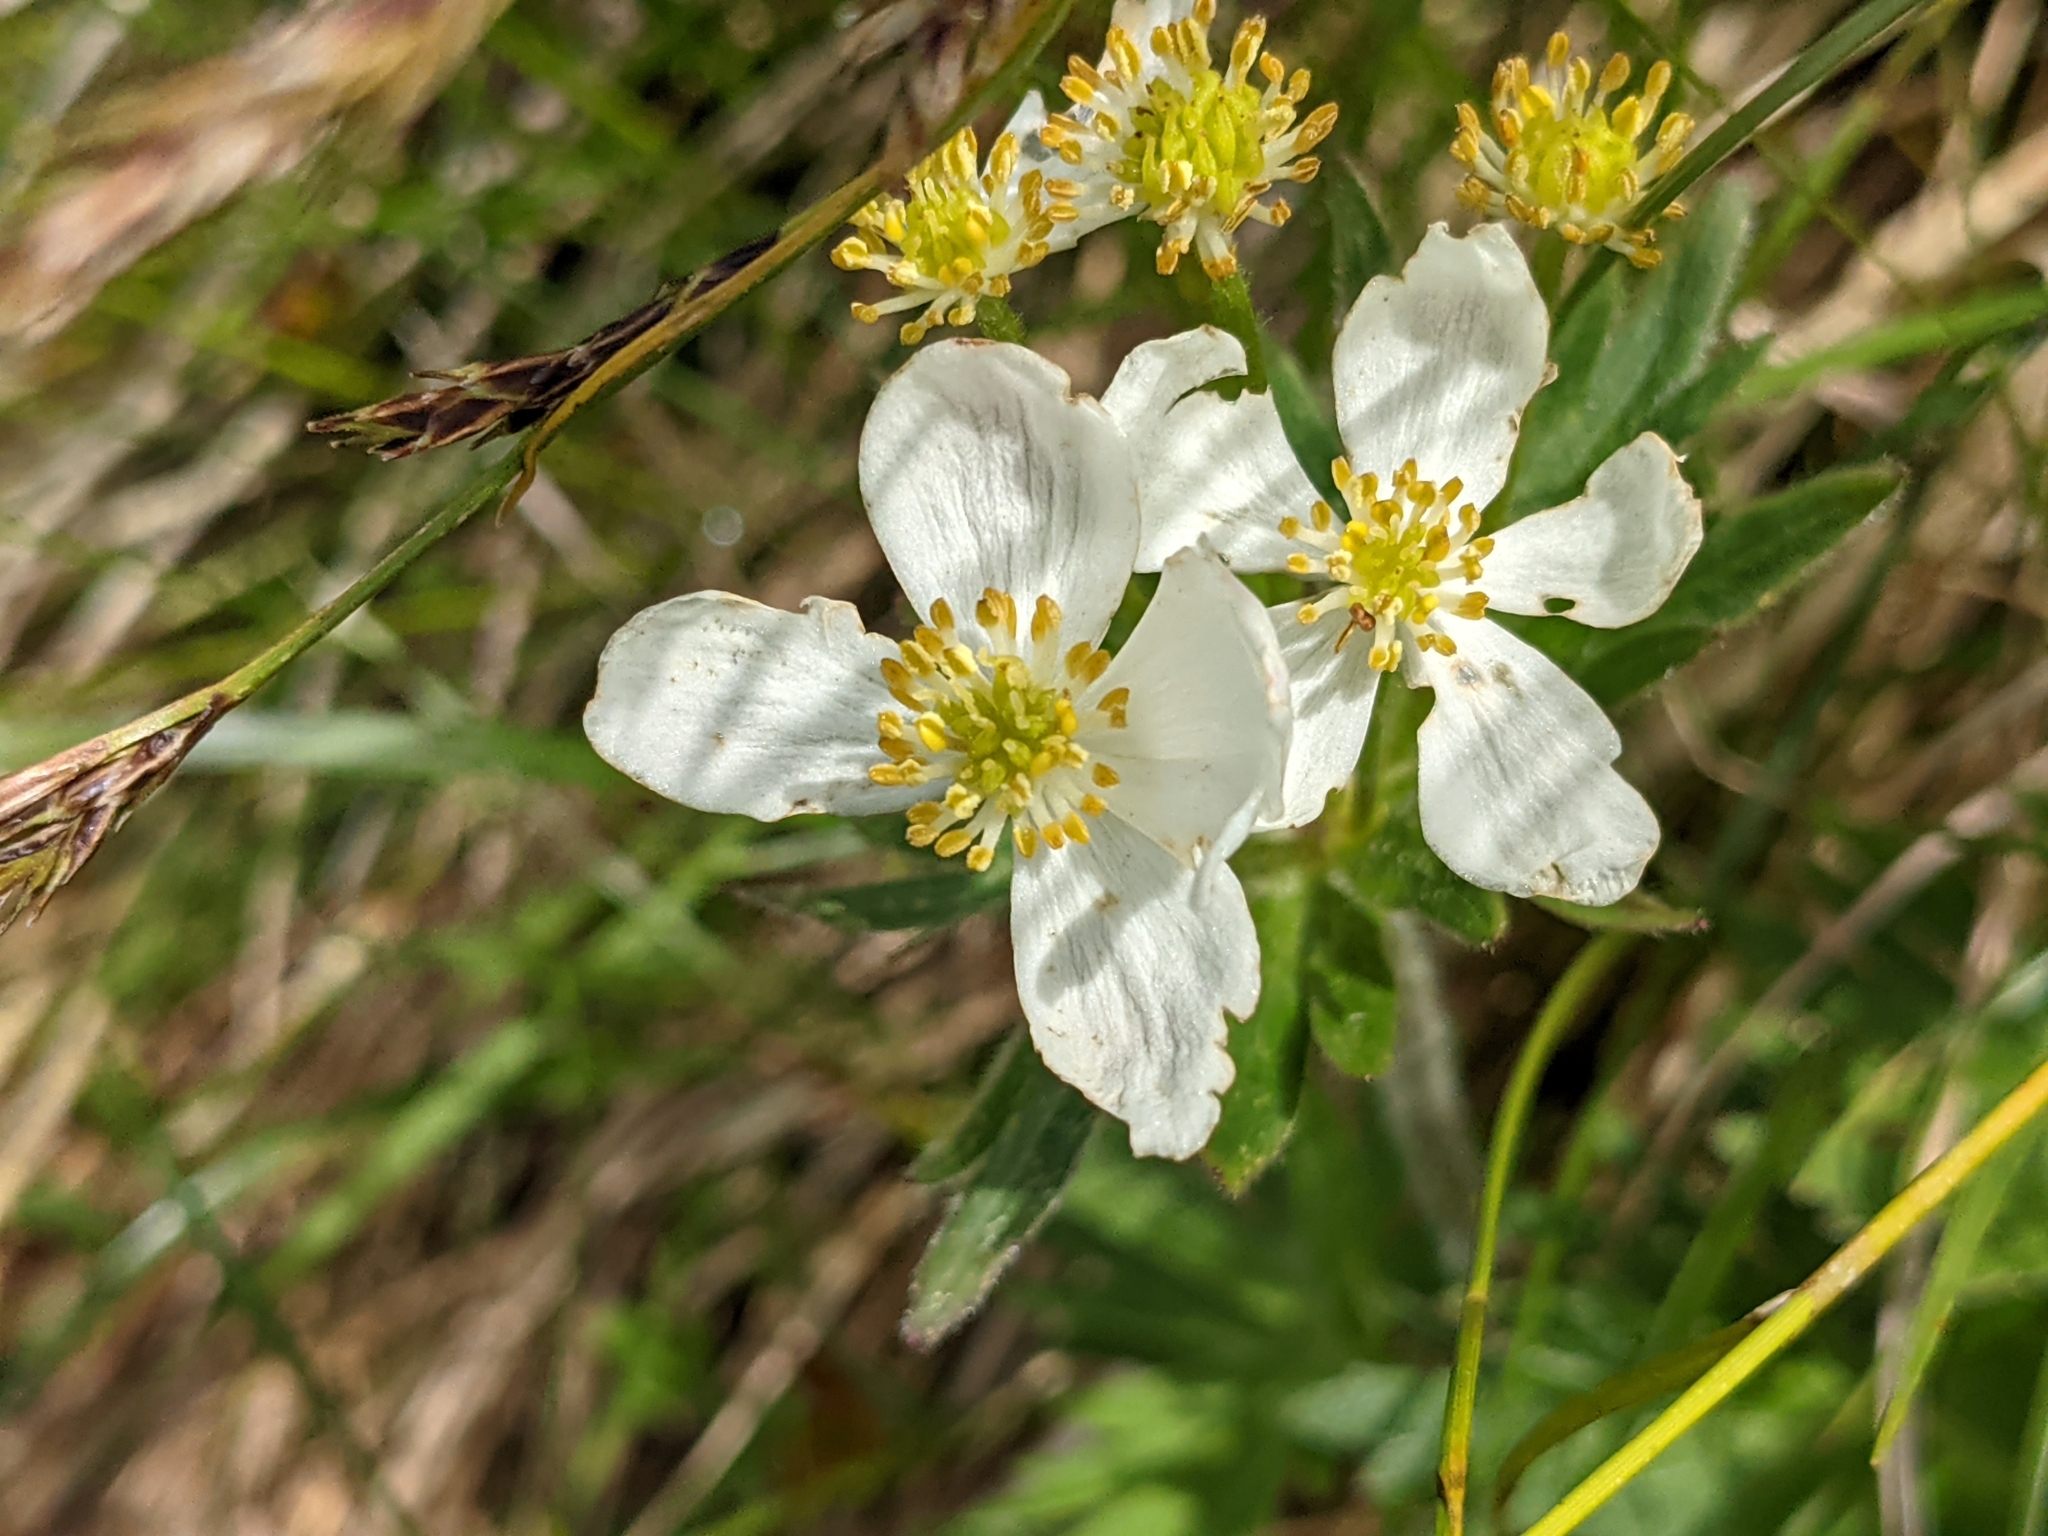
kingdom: Plantae
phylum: Tracheophyta
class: Magnoliopsida
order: Ranunculales
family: Ranunculaceae
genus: Anemonastrum
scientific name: Anemonastrum narcissiflorum
